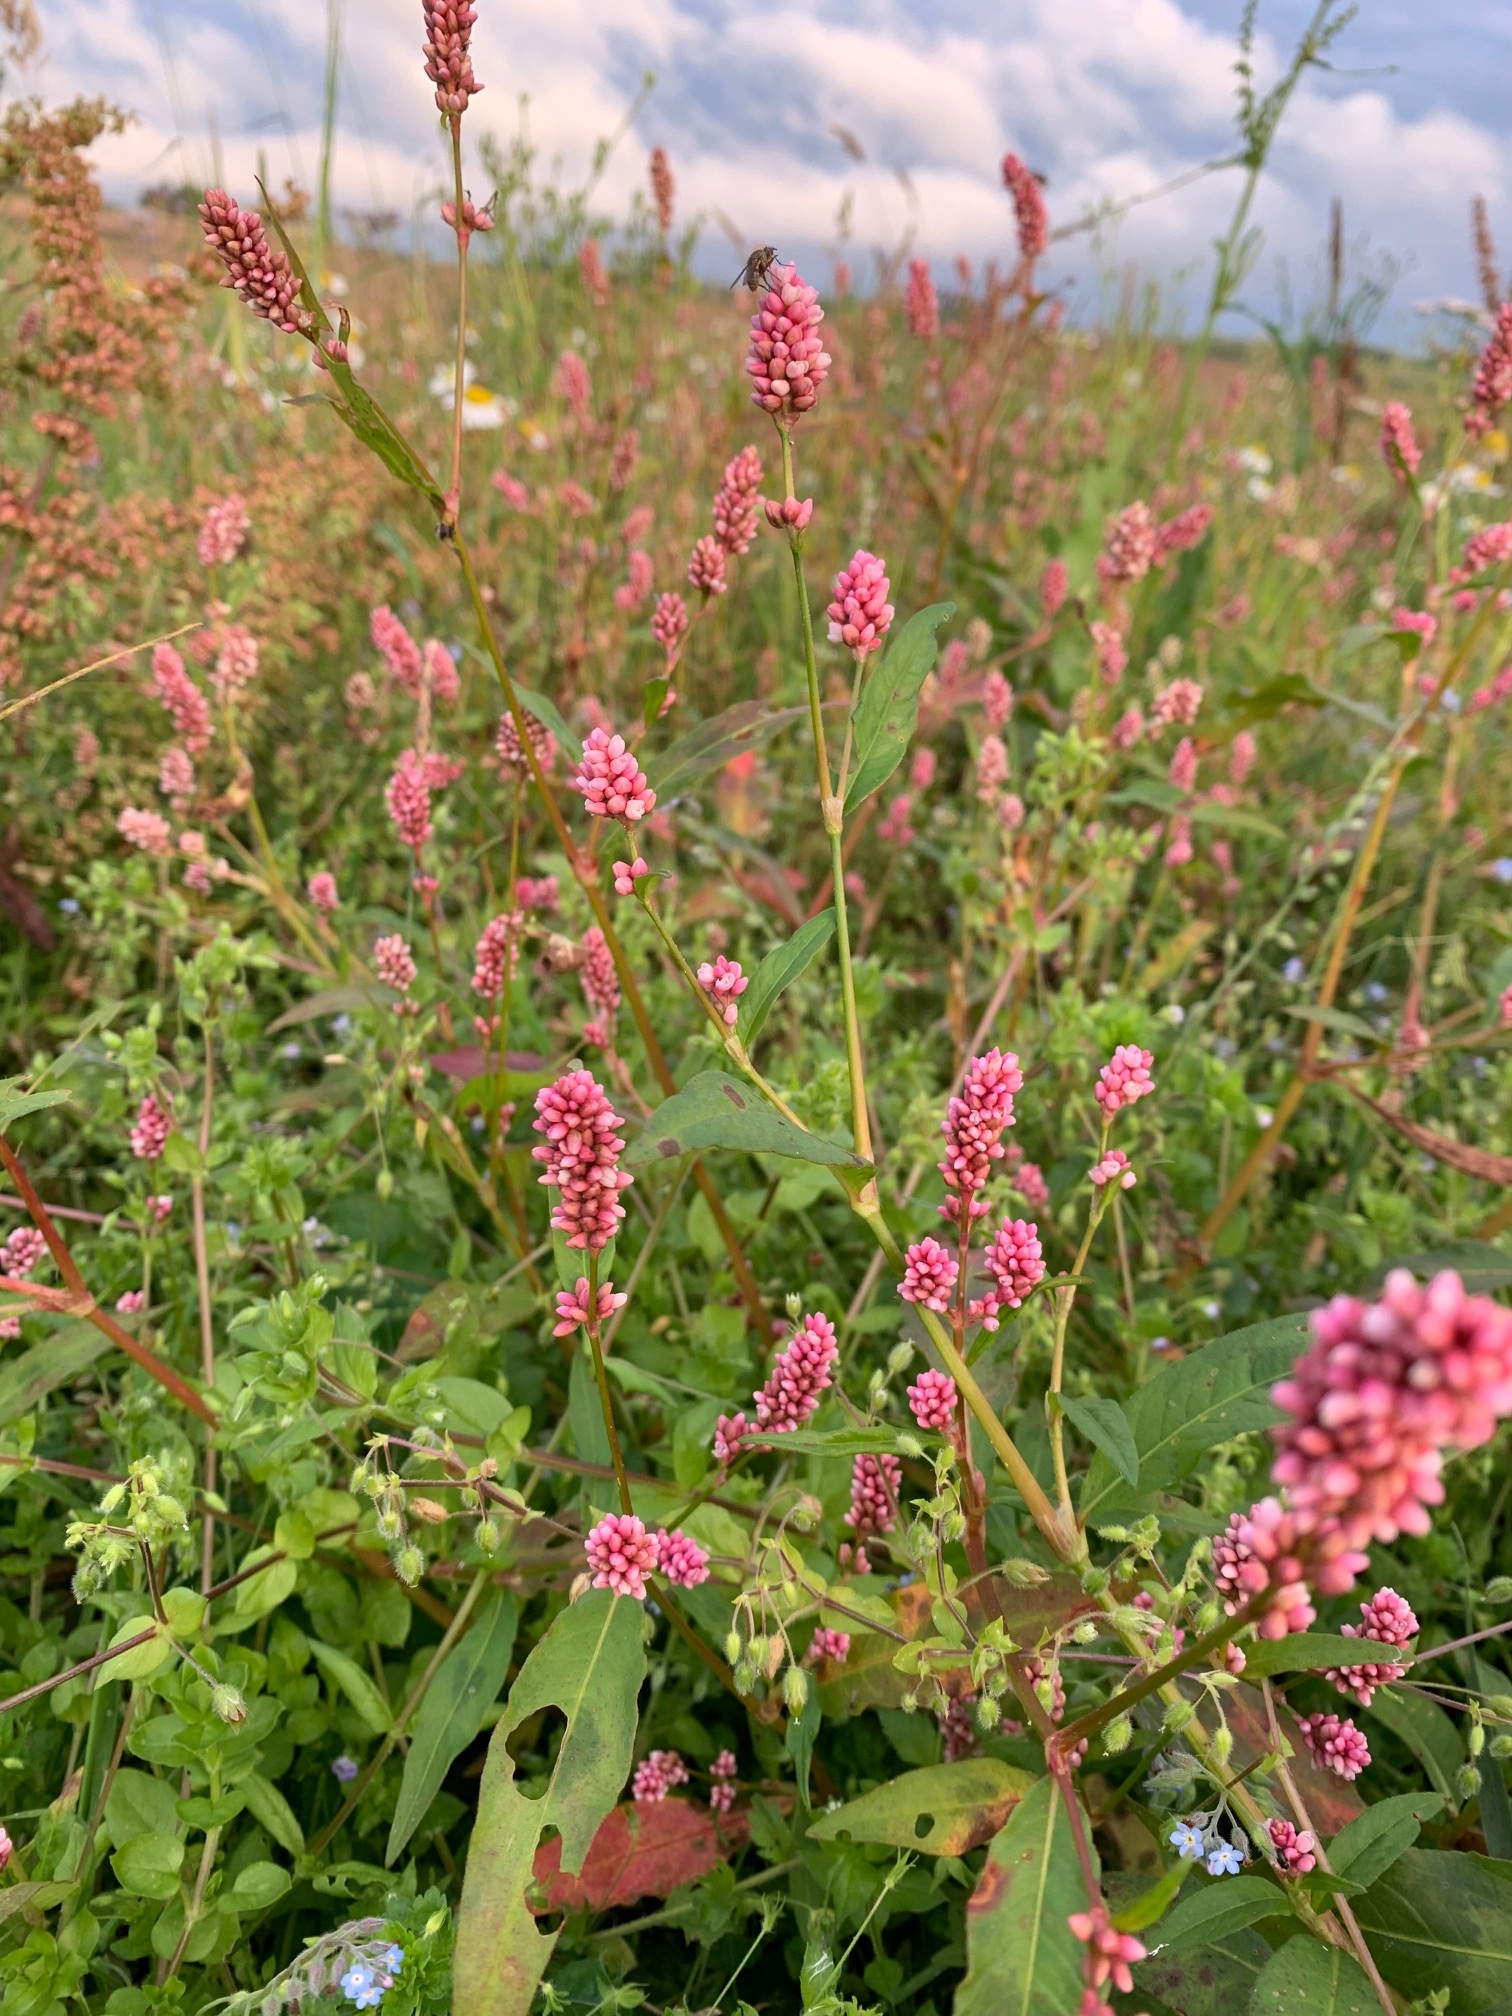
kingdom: Plantae
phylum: Tracheophyta
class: Magnoliopsida
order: Caryophyllales
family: Polygonaceae
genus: Persicaria
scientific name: Persicaria maculosa
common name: Redshank
